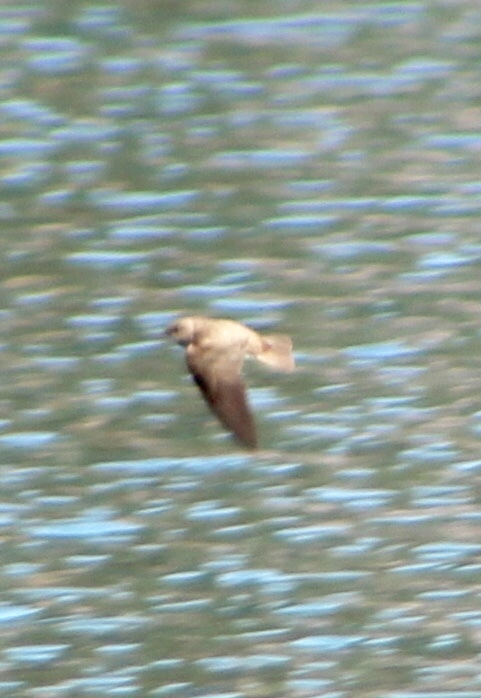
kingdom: Animalia
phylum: Chordata
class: Aves
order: Passeriformes
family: Hirundinidae
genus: Stelgidopteryx
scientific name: Stelgidopteryx serripennis
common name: Northern rough-winged swallow
